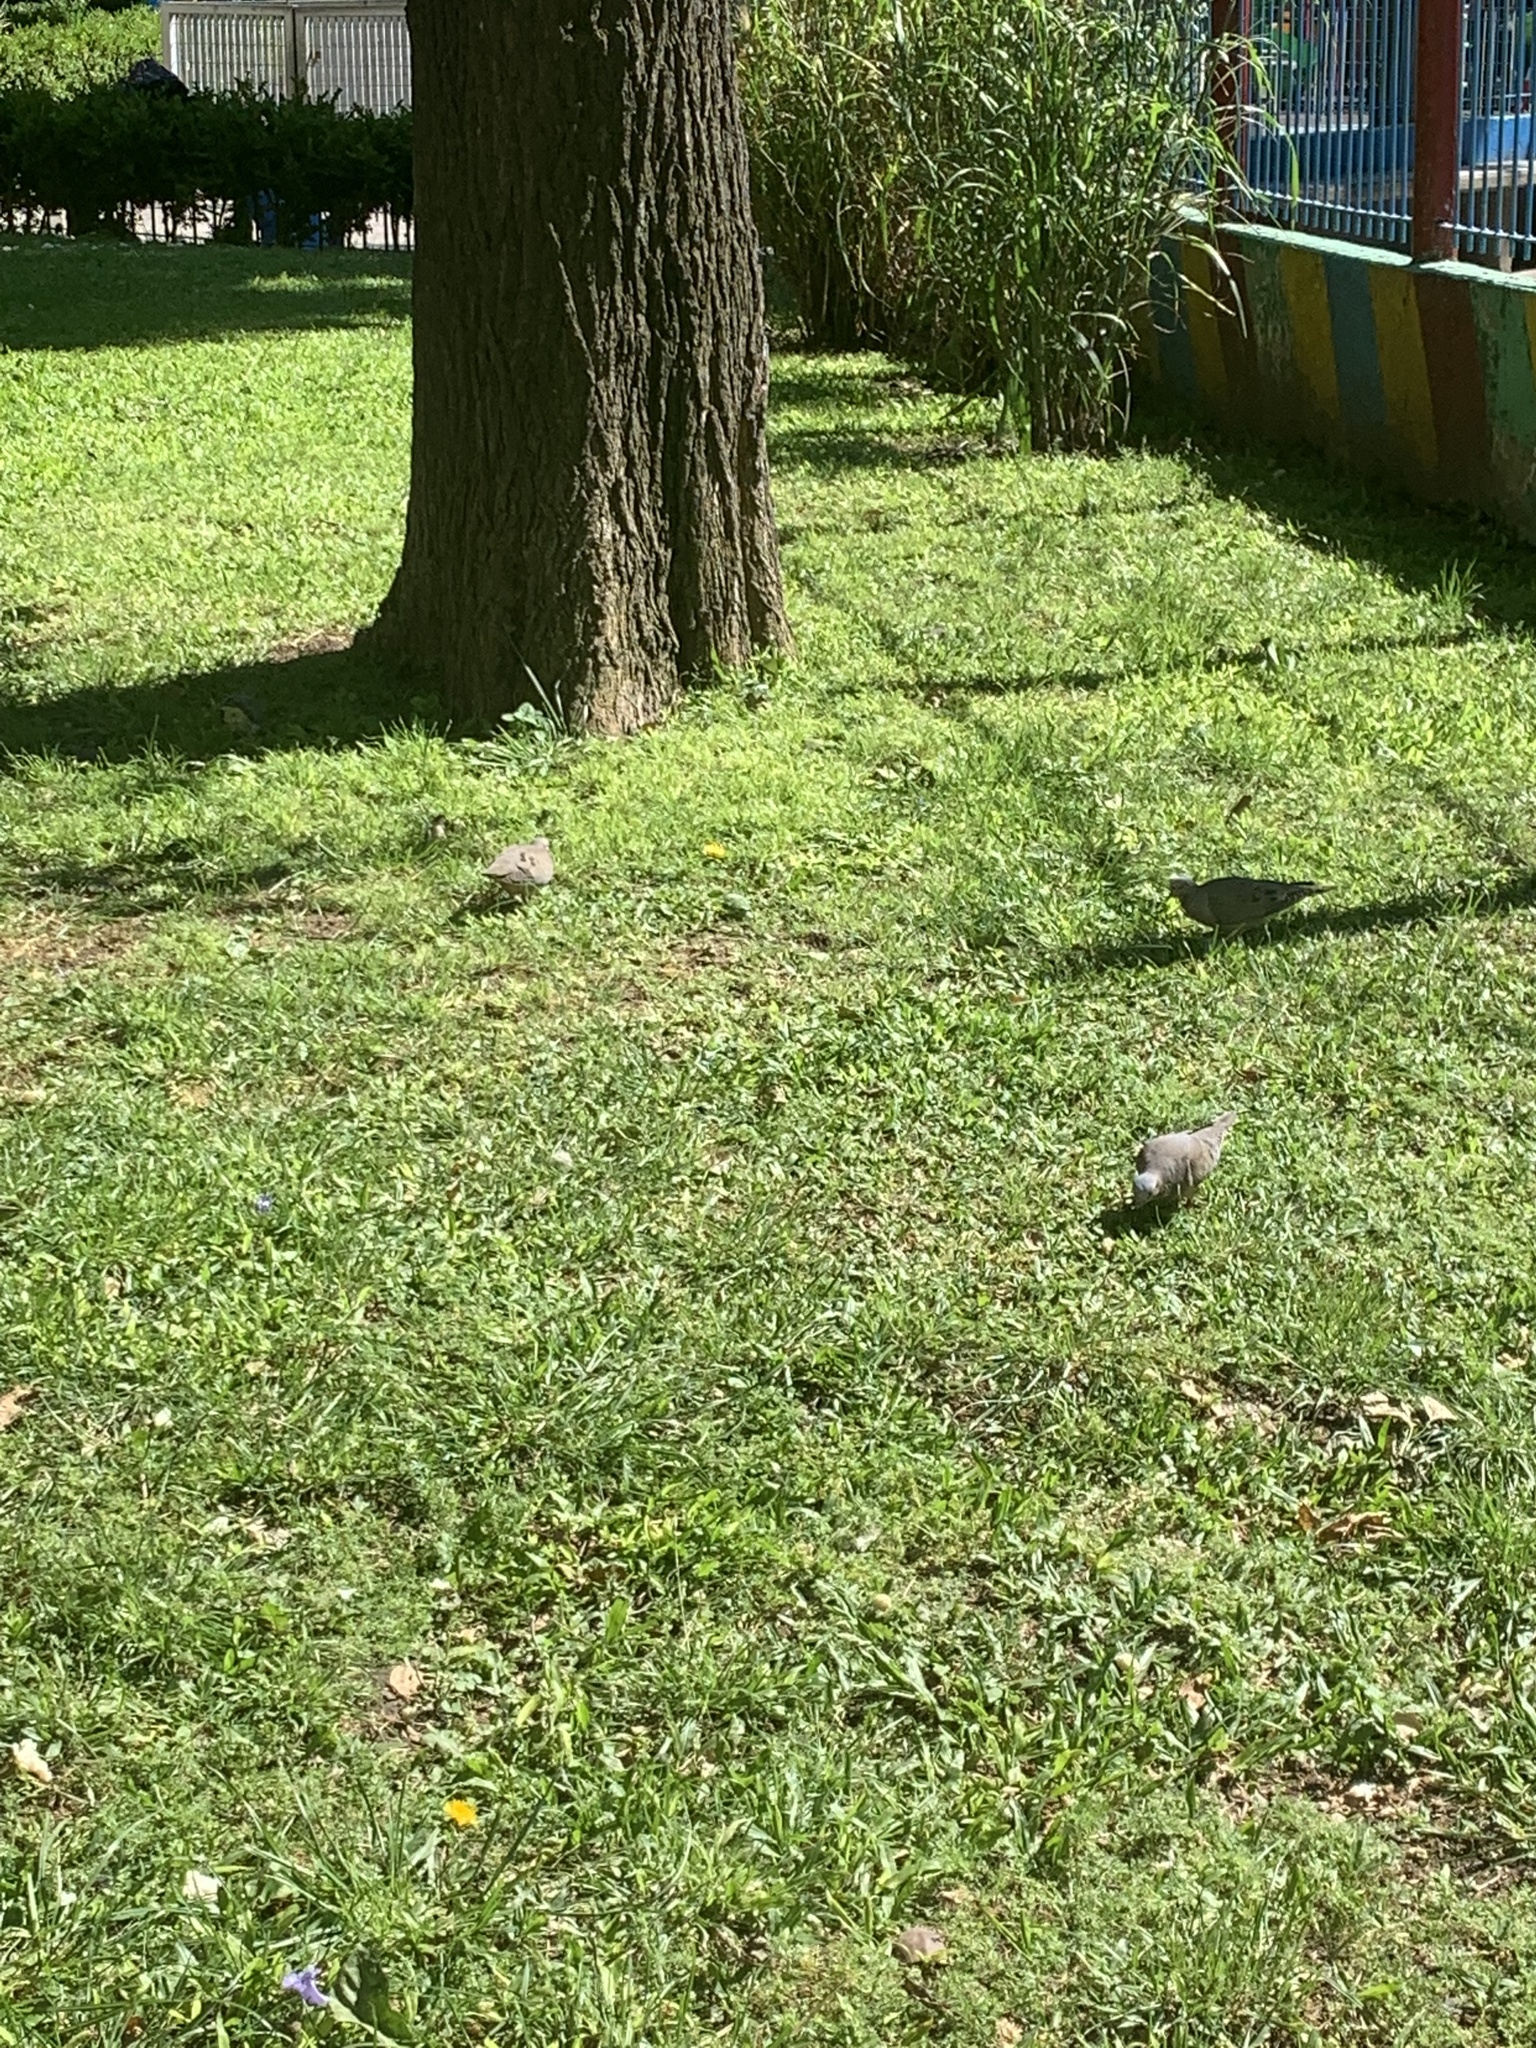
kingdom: Animalia
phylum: Chordata
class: Aves
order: Columbiformes
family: Columbidae
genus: Zenaida
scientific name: Zenaida auriculata
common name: Eared dove
